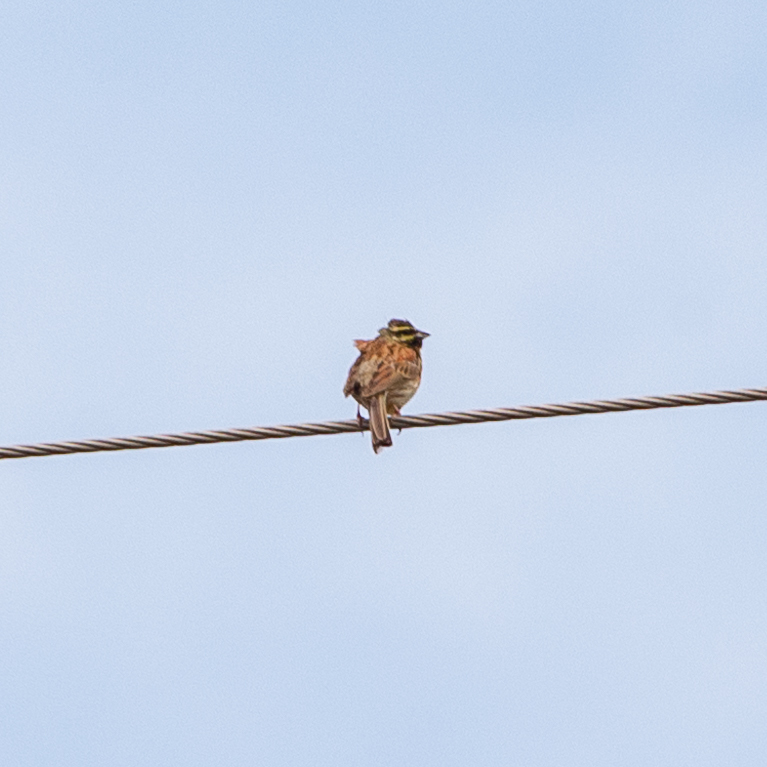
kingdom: Animalia
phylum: Chordata
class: Aves
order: Passeriformes
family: Emberizidae
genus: Emberiza
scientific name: Emberiza cirlus
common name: Cirl bunting
